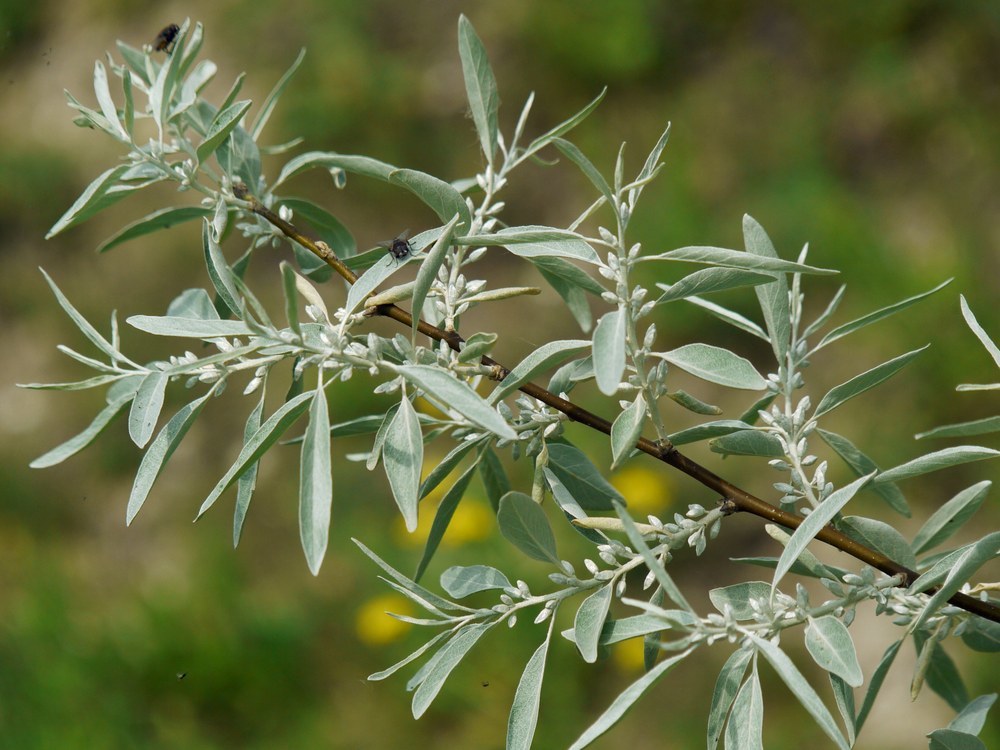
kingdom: Plantae
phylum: Tracheophyta
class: Magnoliopsida
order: Rosales
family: Elaeagnaceae
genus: Elaeagnus
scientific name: Elaeagnus angustifolia
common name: Russian olive
